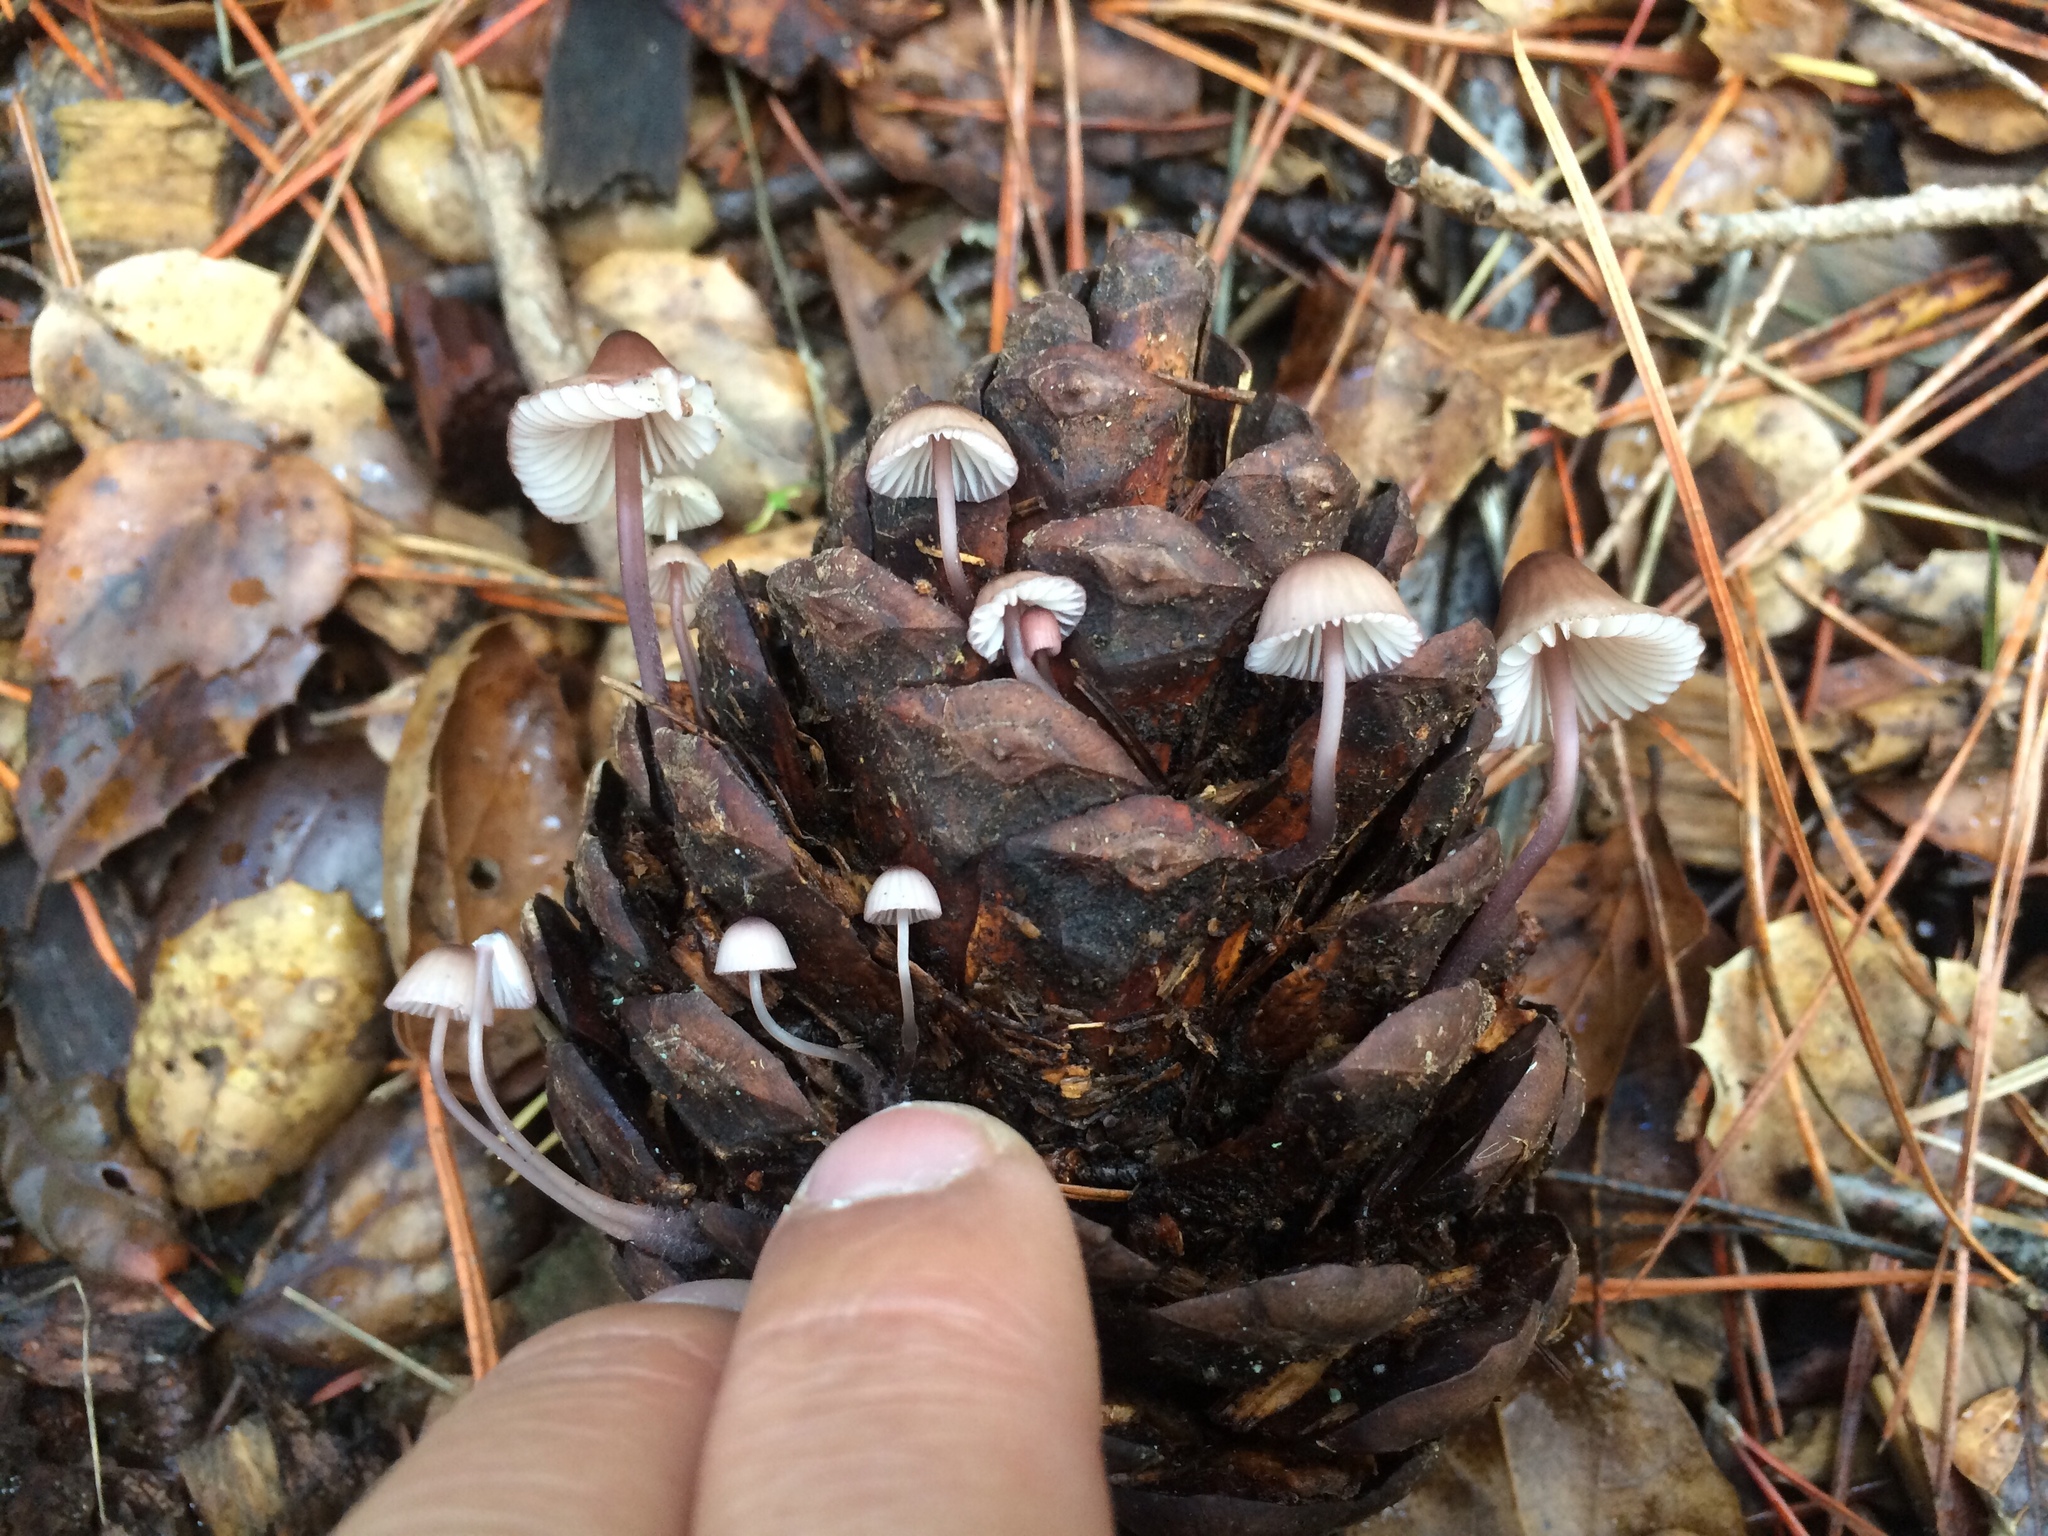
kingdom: Fungi
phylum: Basidiomycota
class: Agaricomycetes
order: Agaricales
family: Mycenaceae
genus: Mycena
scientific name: Mycena purpureofusca
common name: Purple edge bonnet
